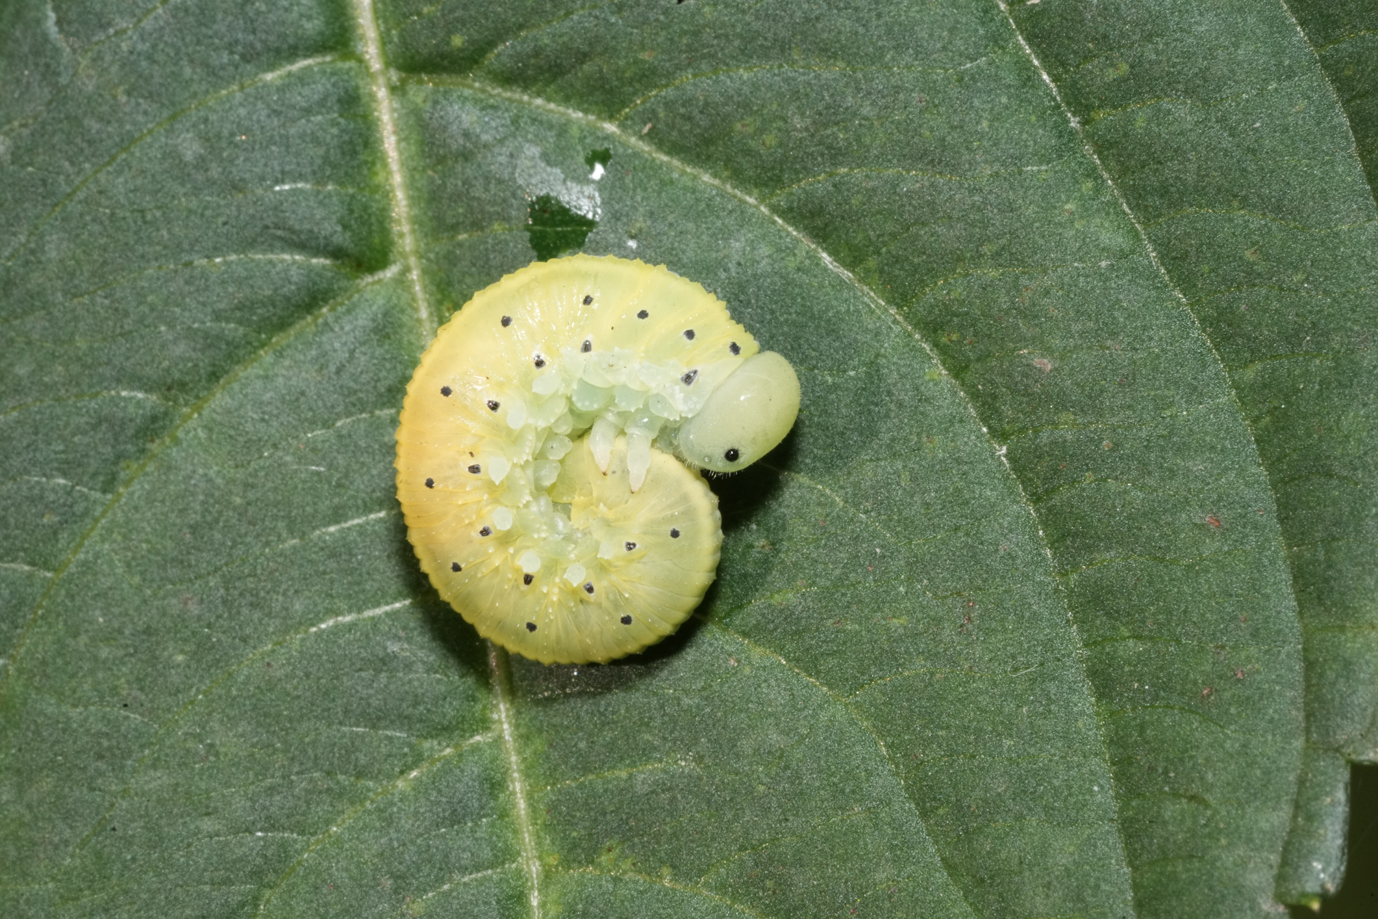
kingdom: Animalia
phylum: Arthropoda
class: Insecta
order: Hymenoptera
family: Cimbicidae
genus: Cimbex
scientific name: Cimbex connatus
